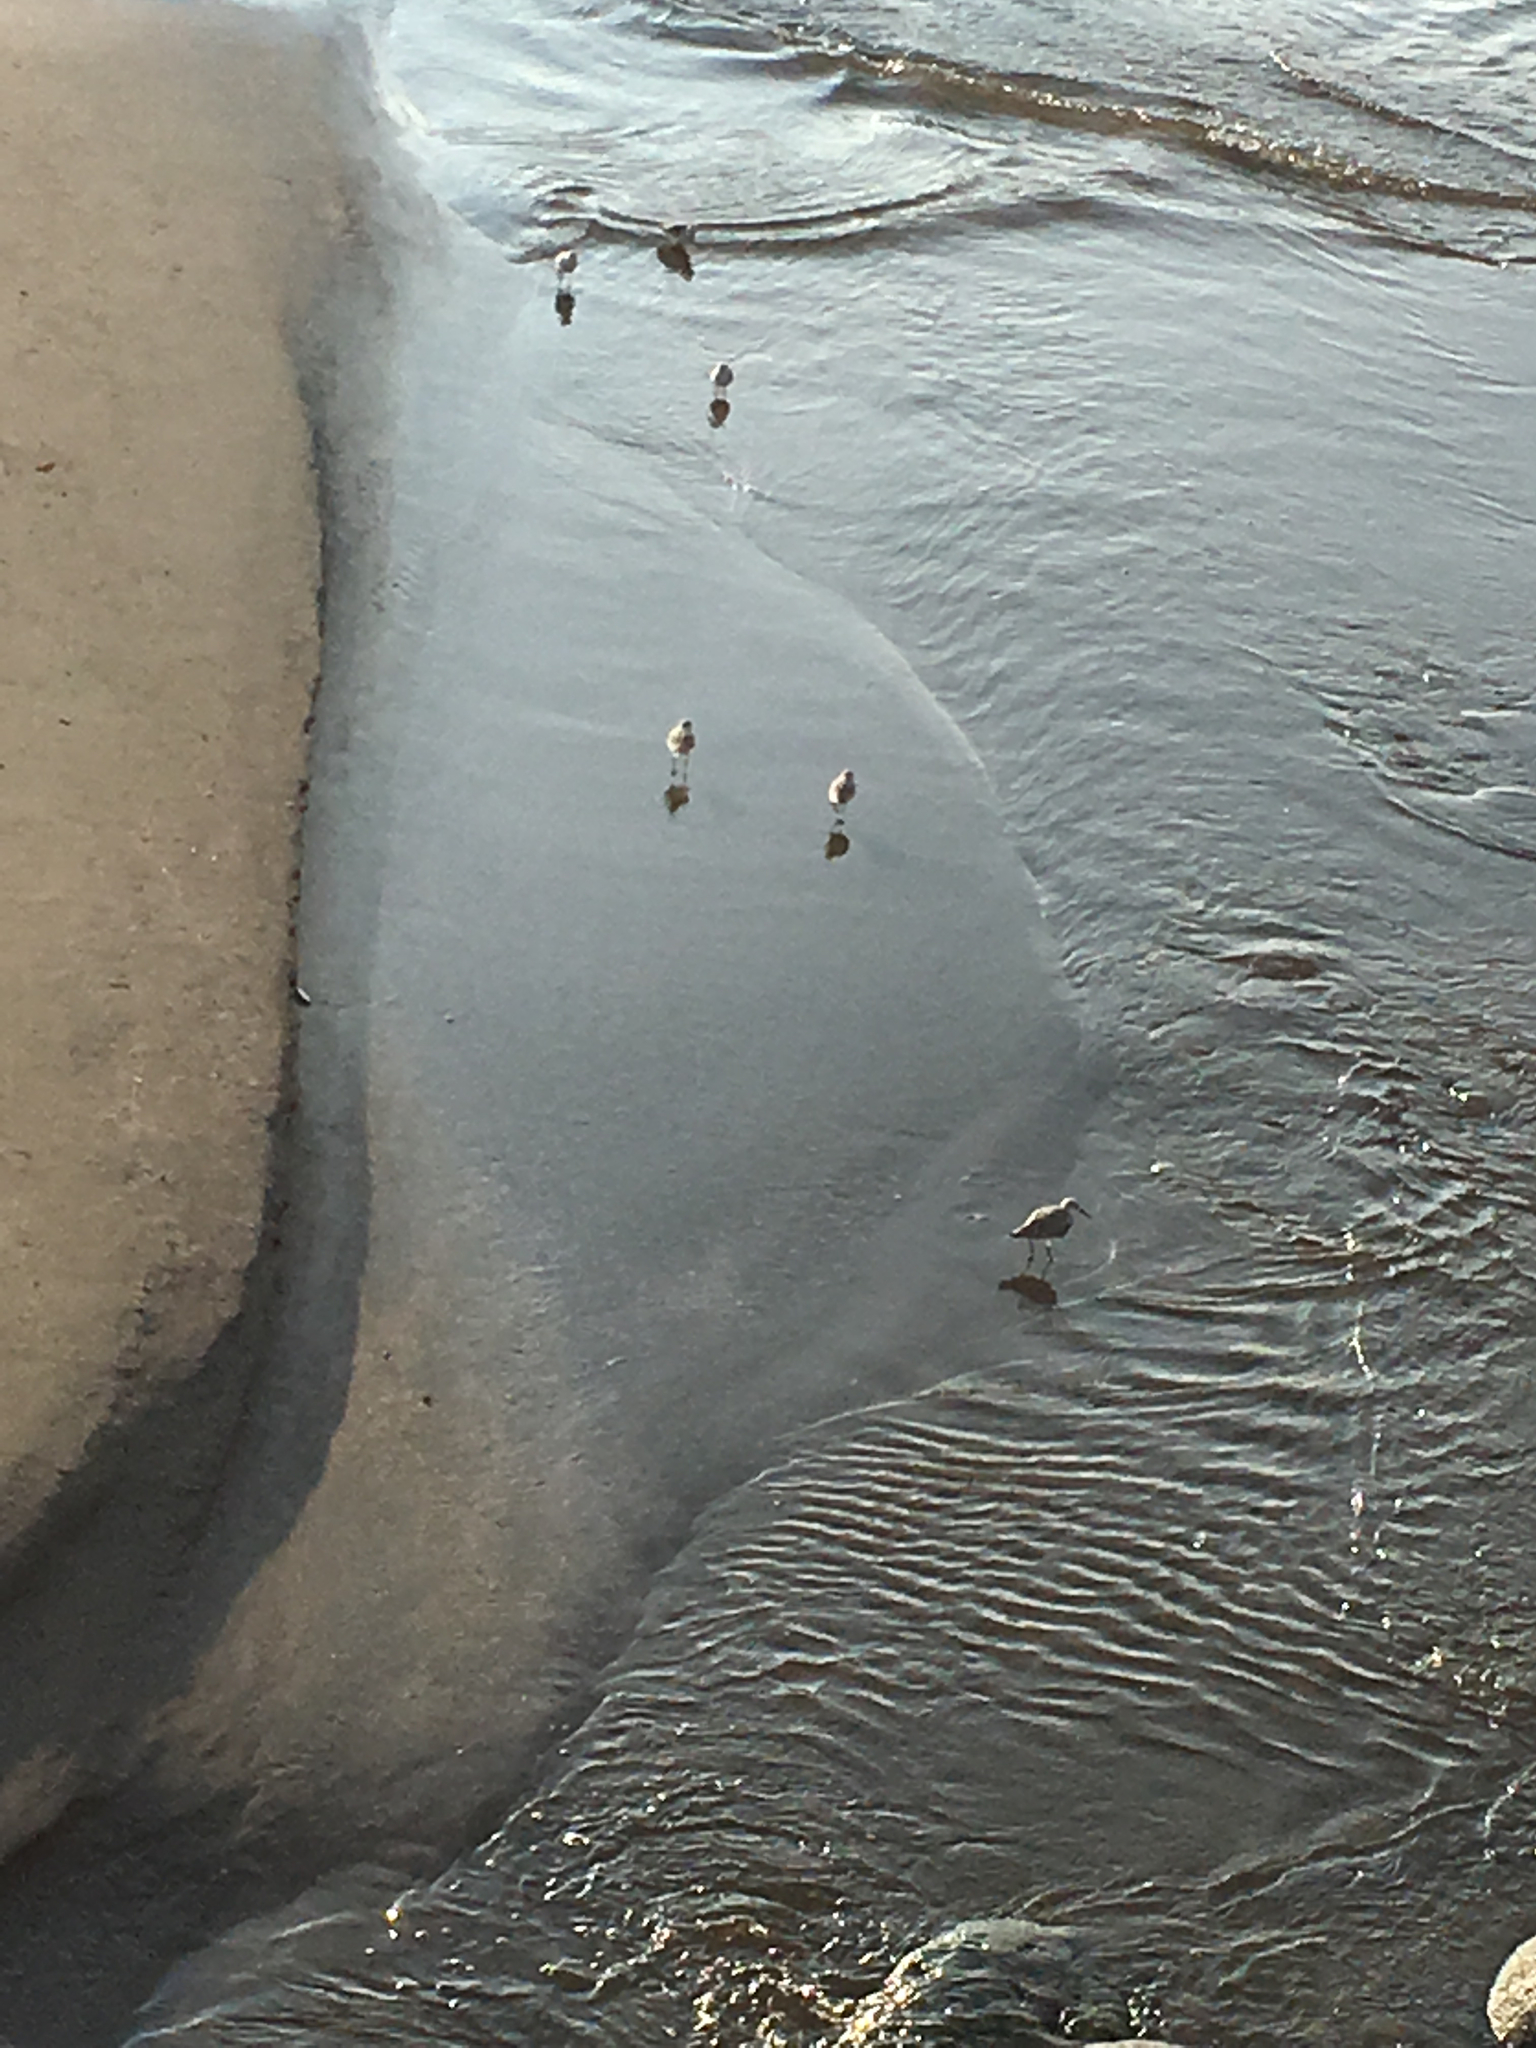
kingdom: Animalia
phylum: Chordata
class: Aves
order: Charadriiformes
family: Scolopacidae
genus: Calidris
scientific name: Calidris alba
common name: Sanderling
